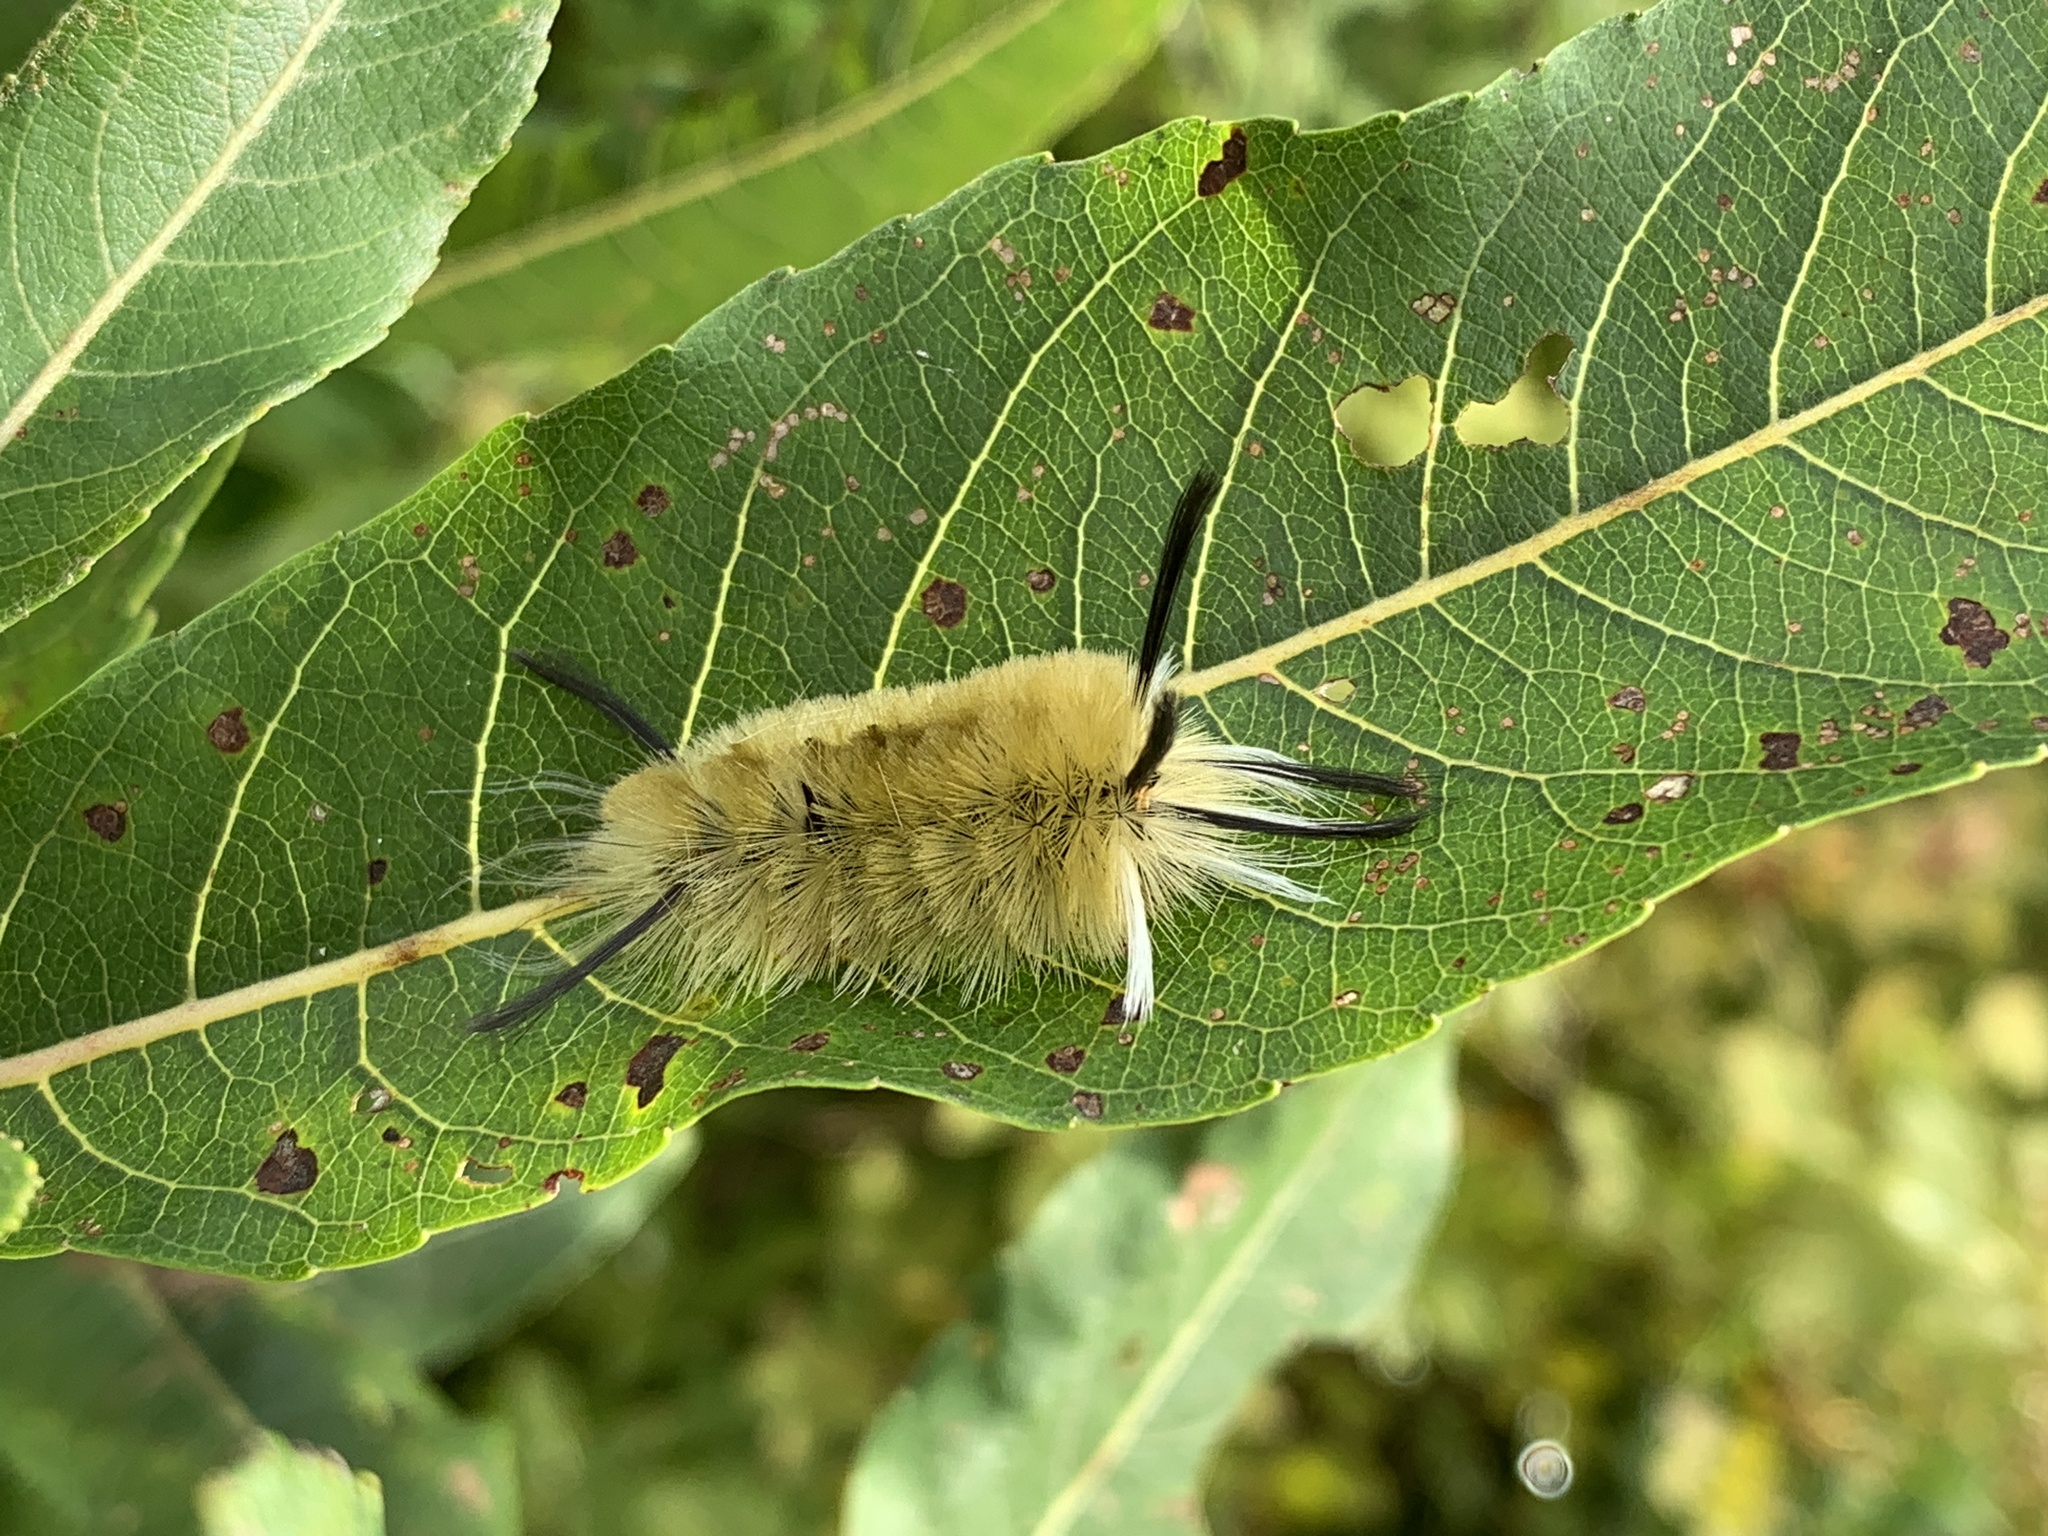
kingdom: Animalia
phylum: Arthropoda
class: Insecta
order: Lepidoptera
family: Erebidae
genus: Halysidota
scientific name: Halysidota tessellaris
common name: Banded tussock moth
